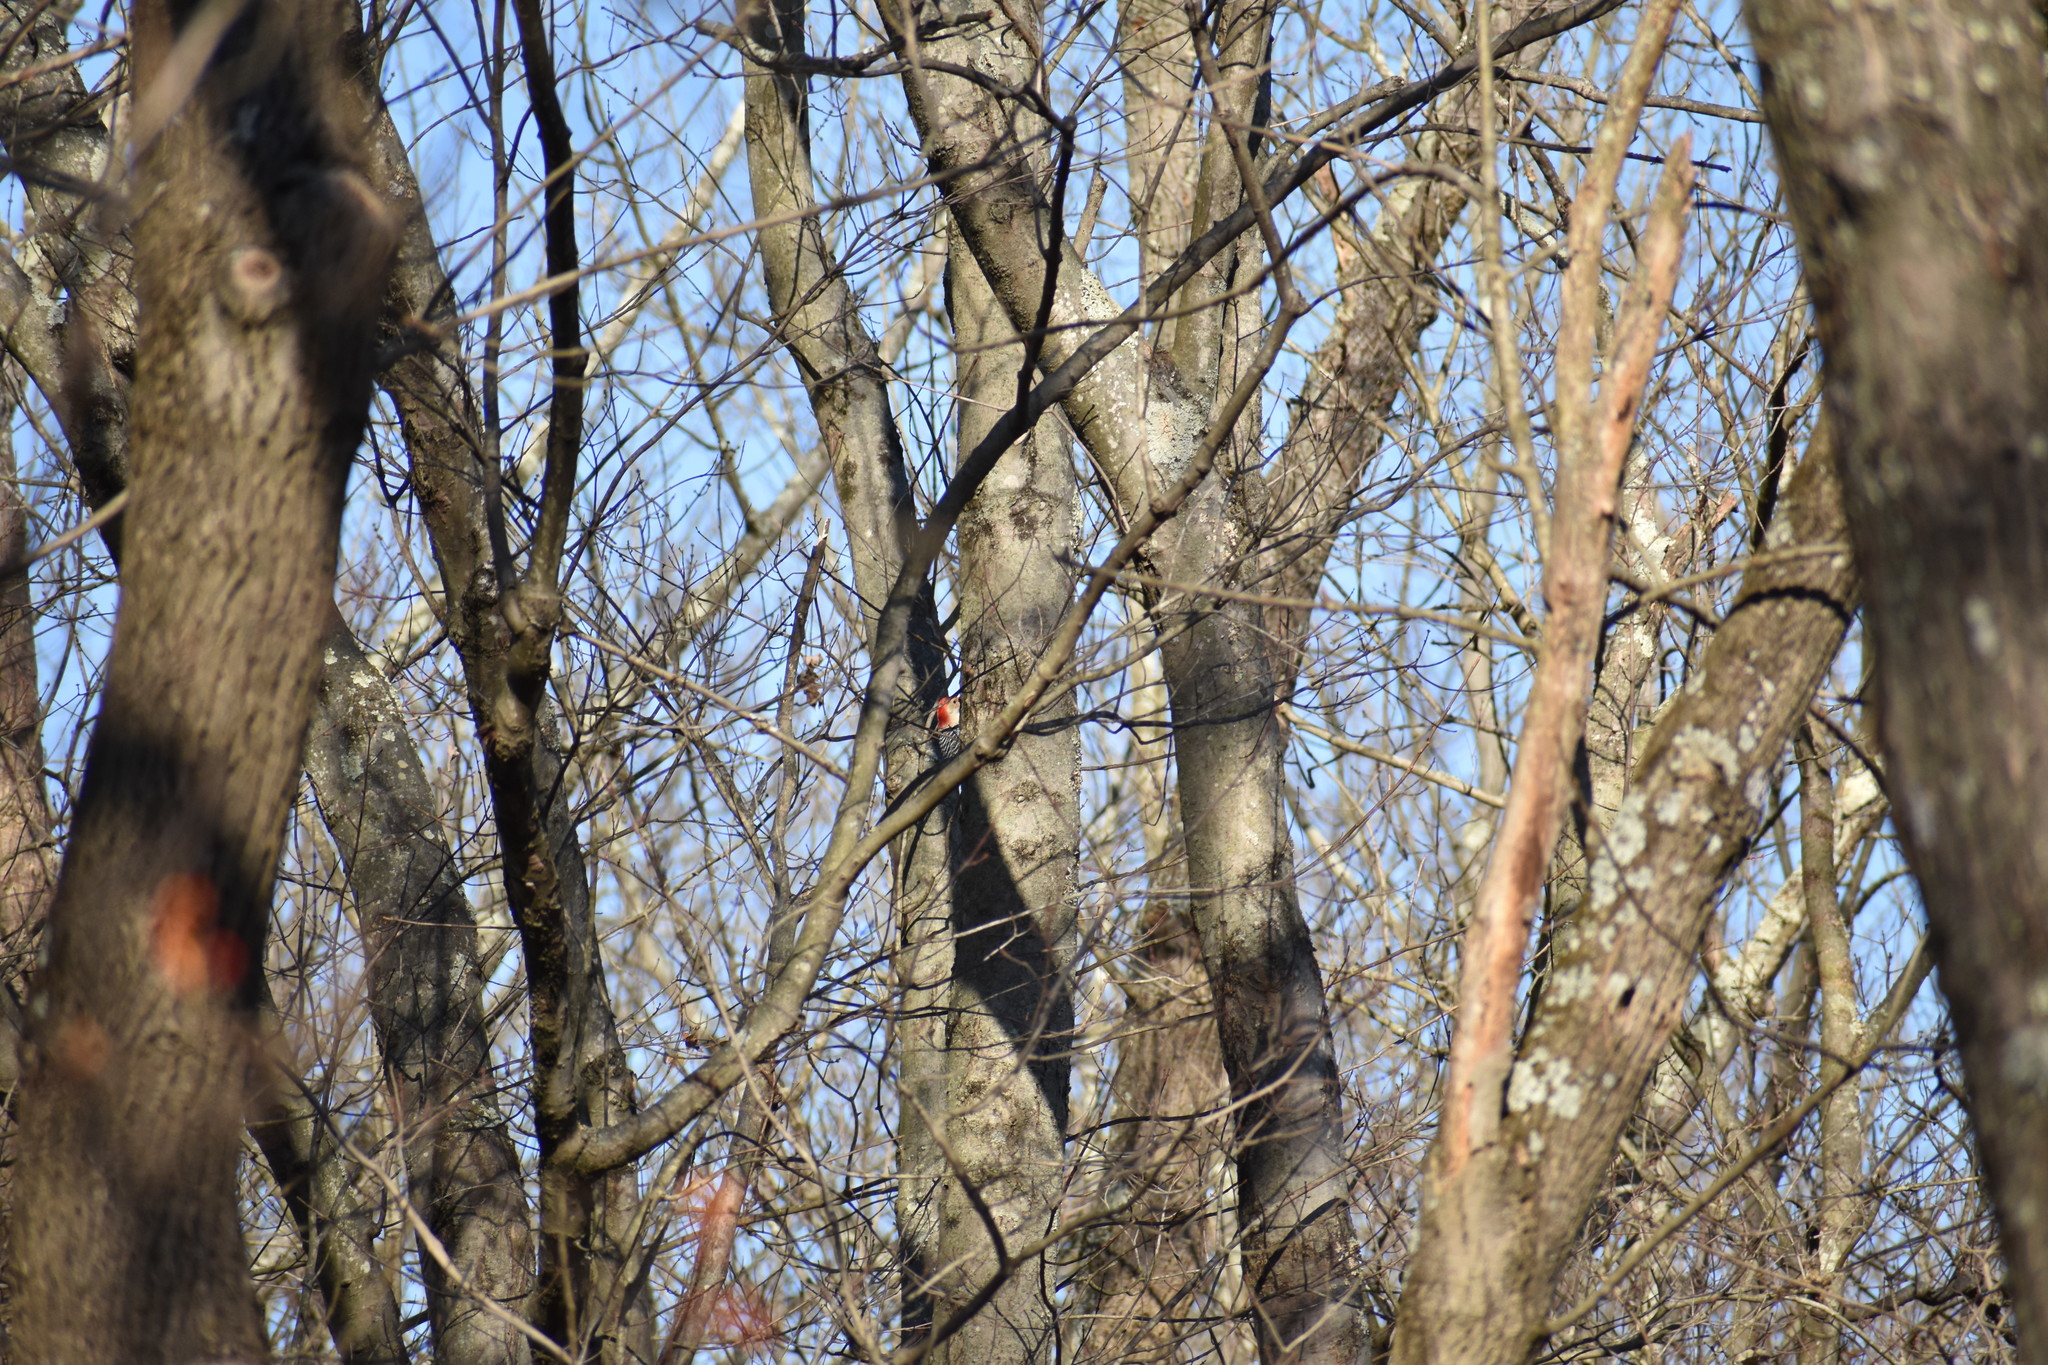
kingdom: Animalia
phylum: Chordata
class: Aves
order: Piciformes
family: Picidae
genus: Melanerpes
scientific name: Melanerpes carolinus
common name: Red-bellied woodpecker
